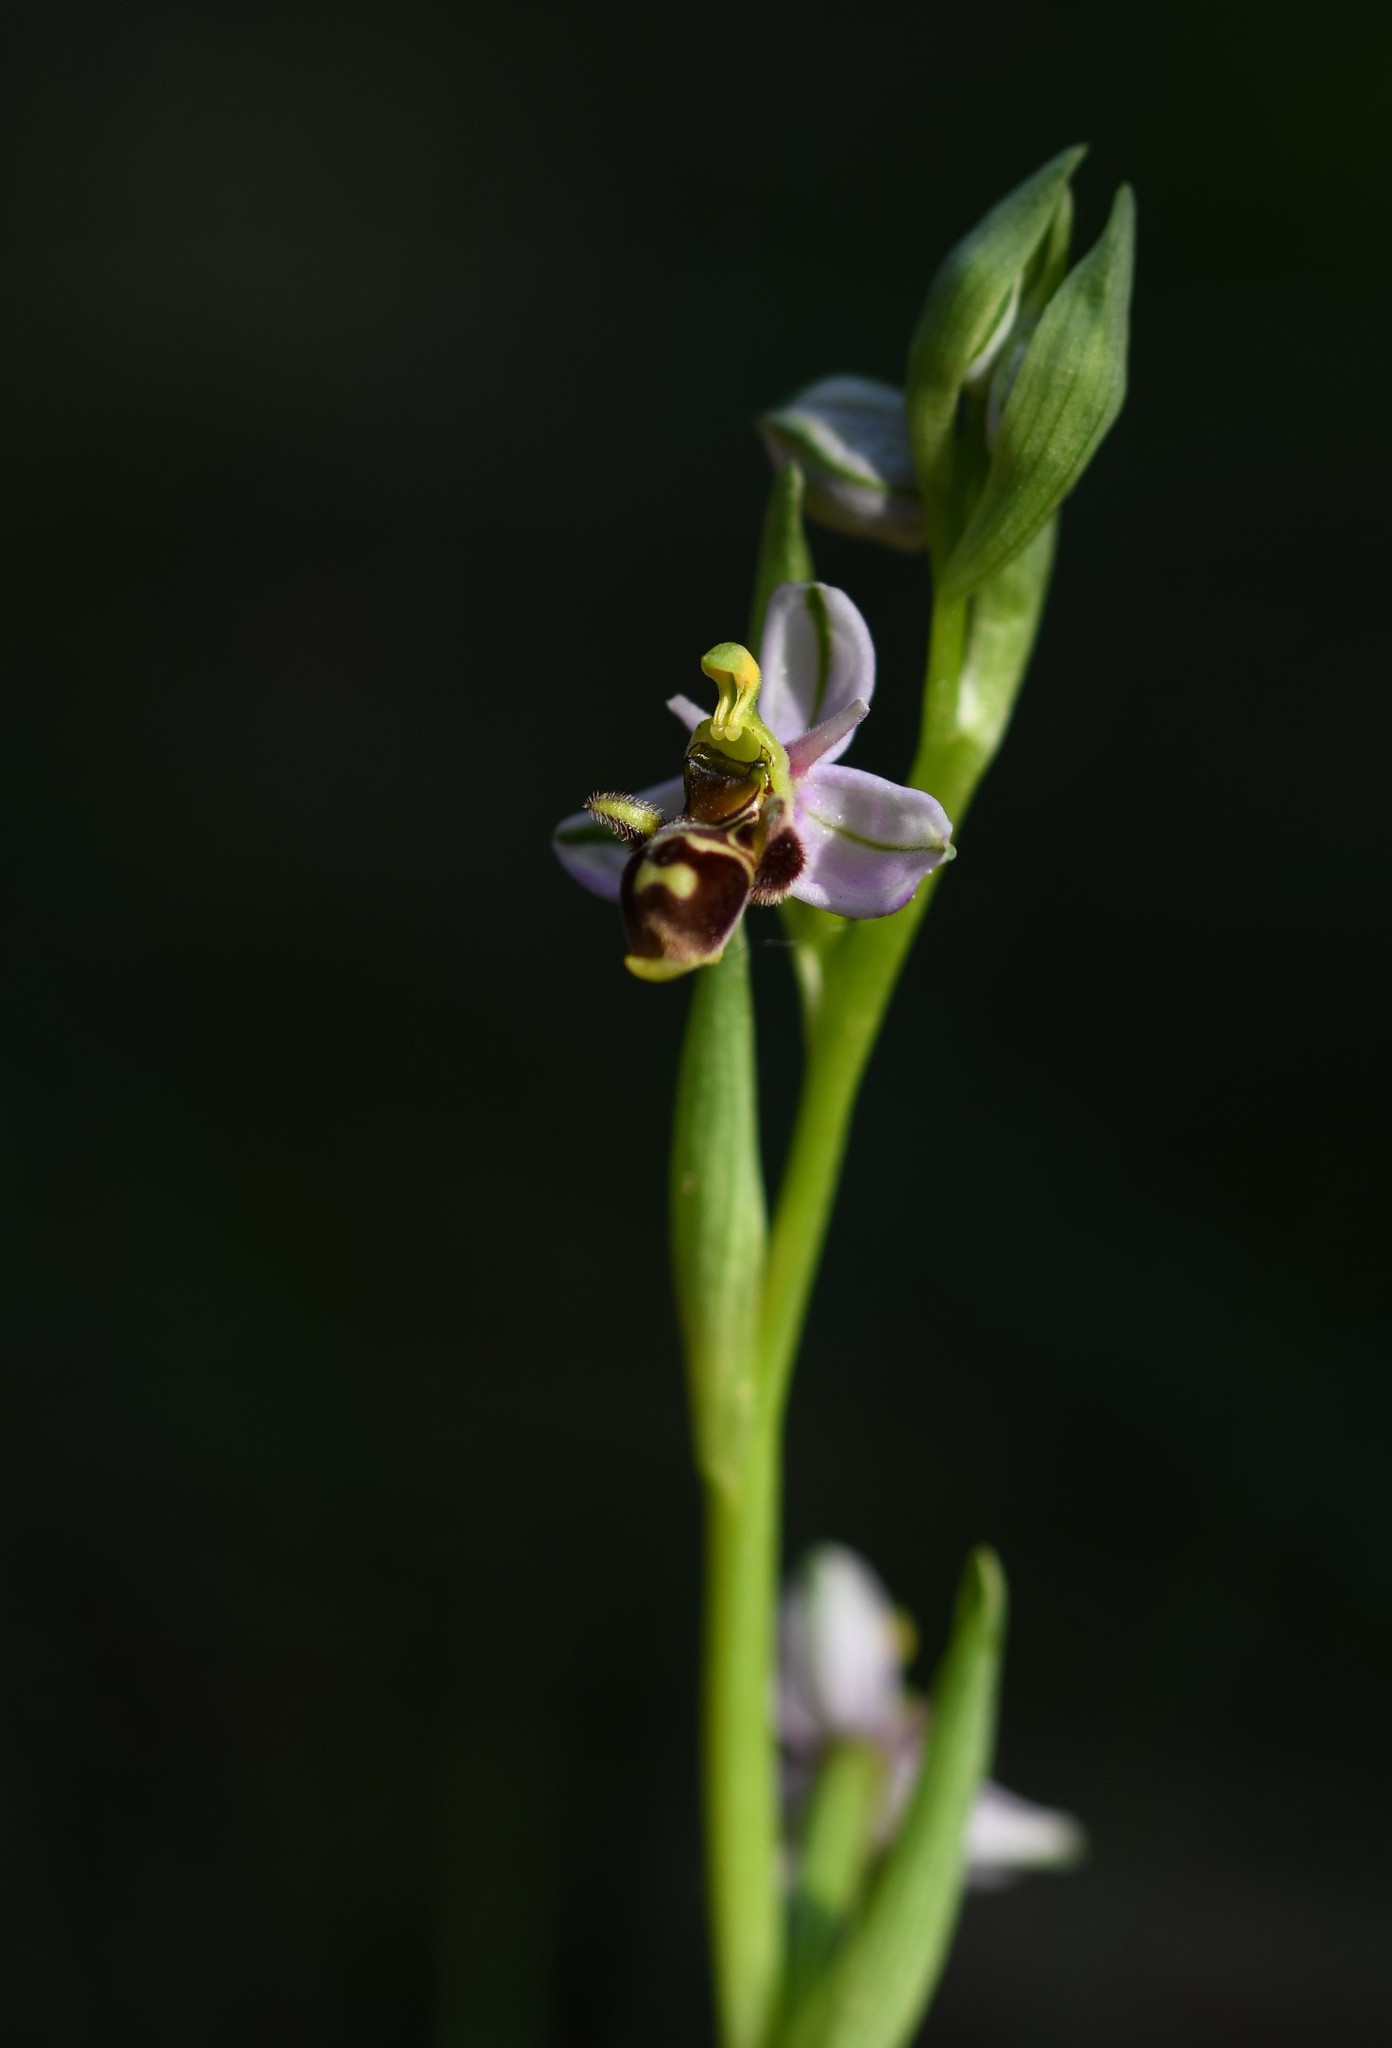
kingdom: Plantae
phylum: Tracheophyta
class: Liliopsida
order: Asparagales
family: Orchidaceae
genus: Ophrys
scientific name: Ophrys scolopax
